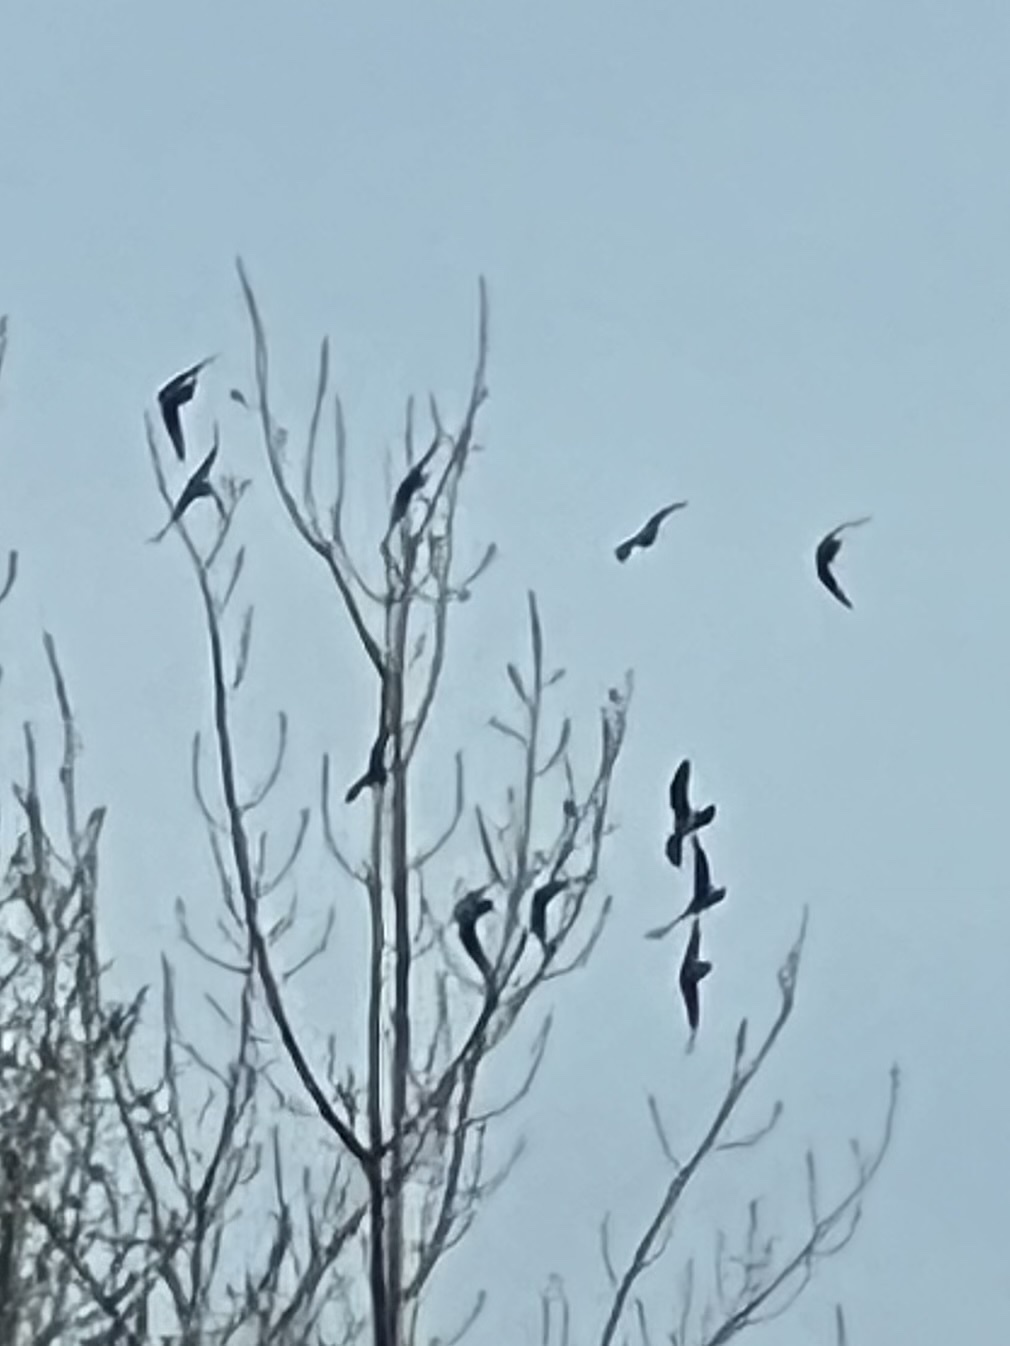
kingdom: Animalia
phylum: Chordata
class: Aves
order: Columbiformes
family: Columbidae
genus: Columba
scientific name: Columba livia
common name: Rock pigeon
